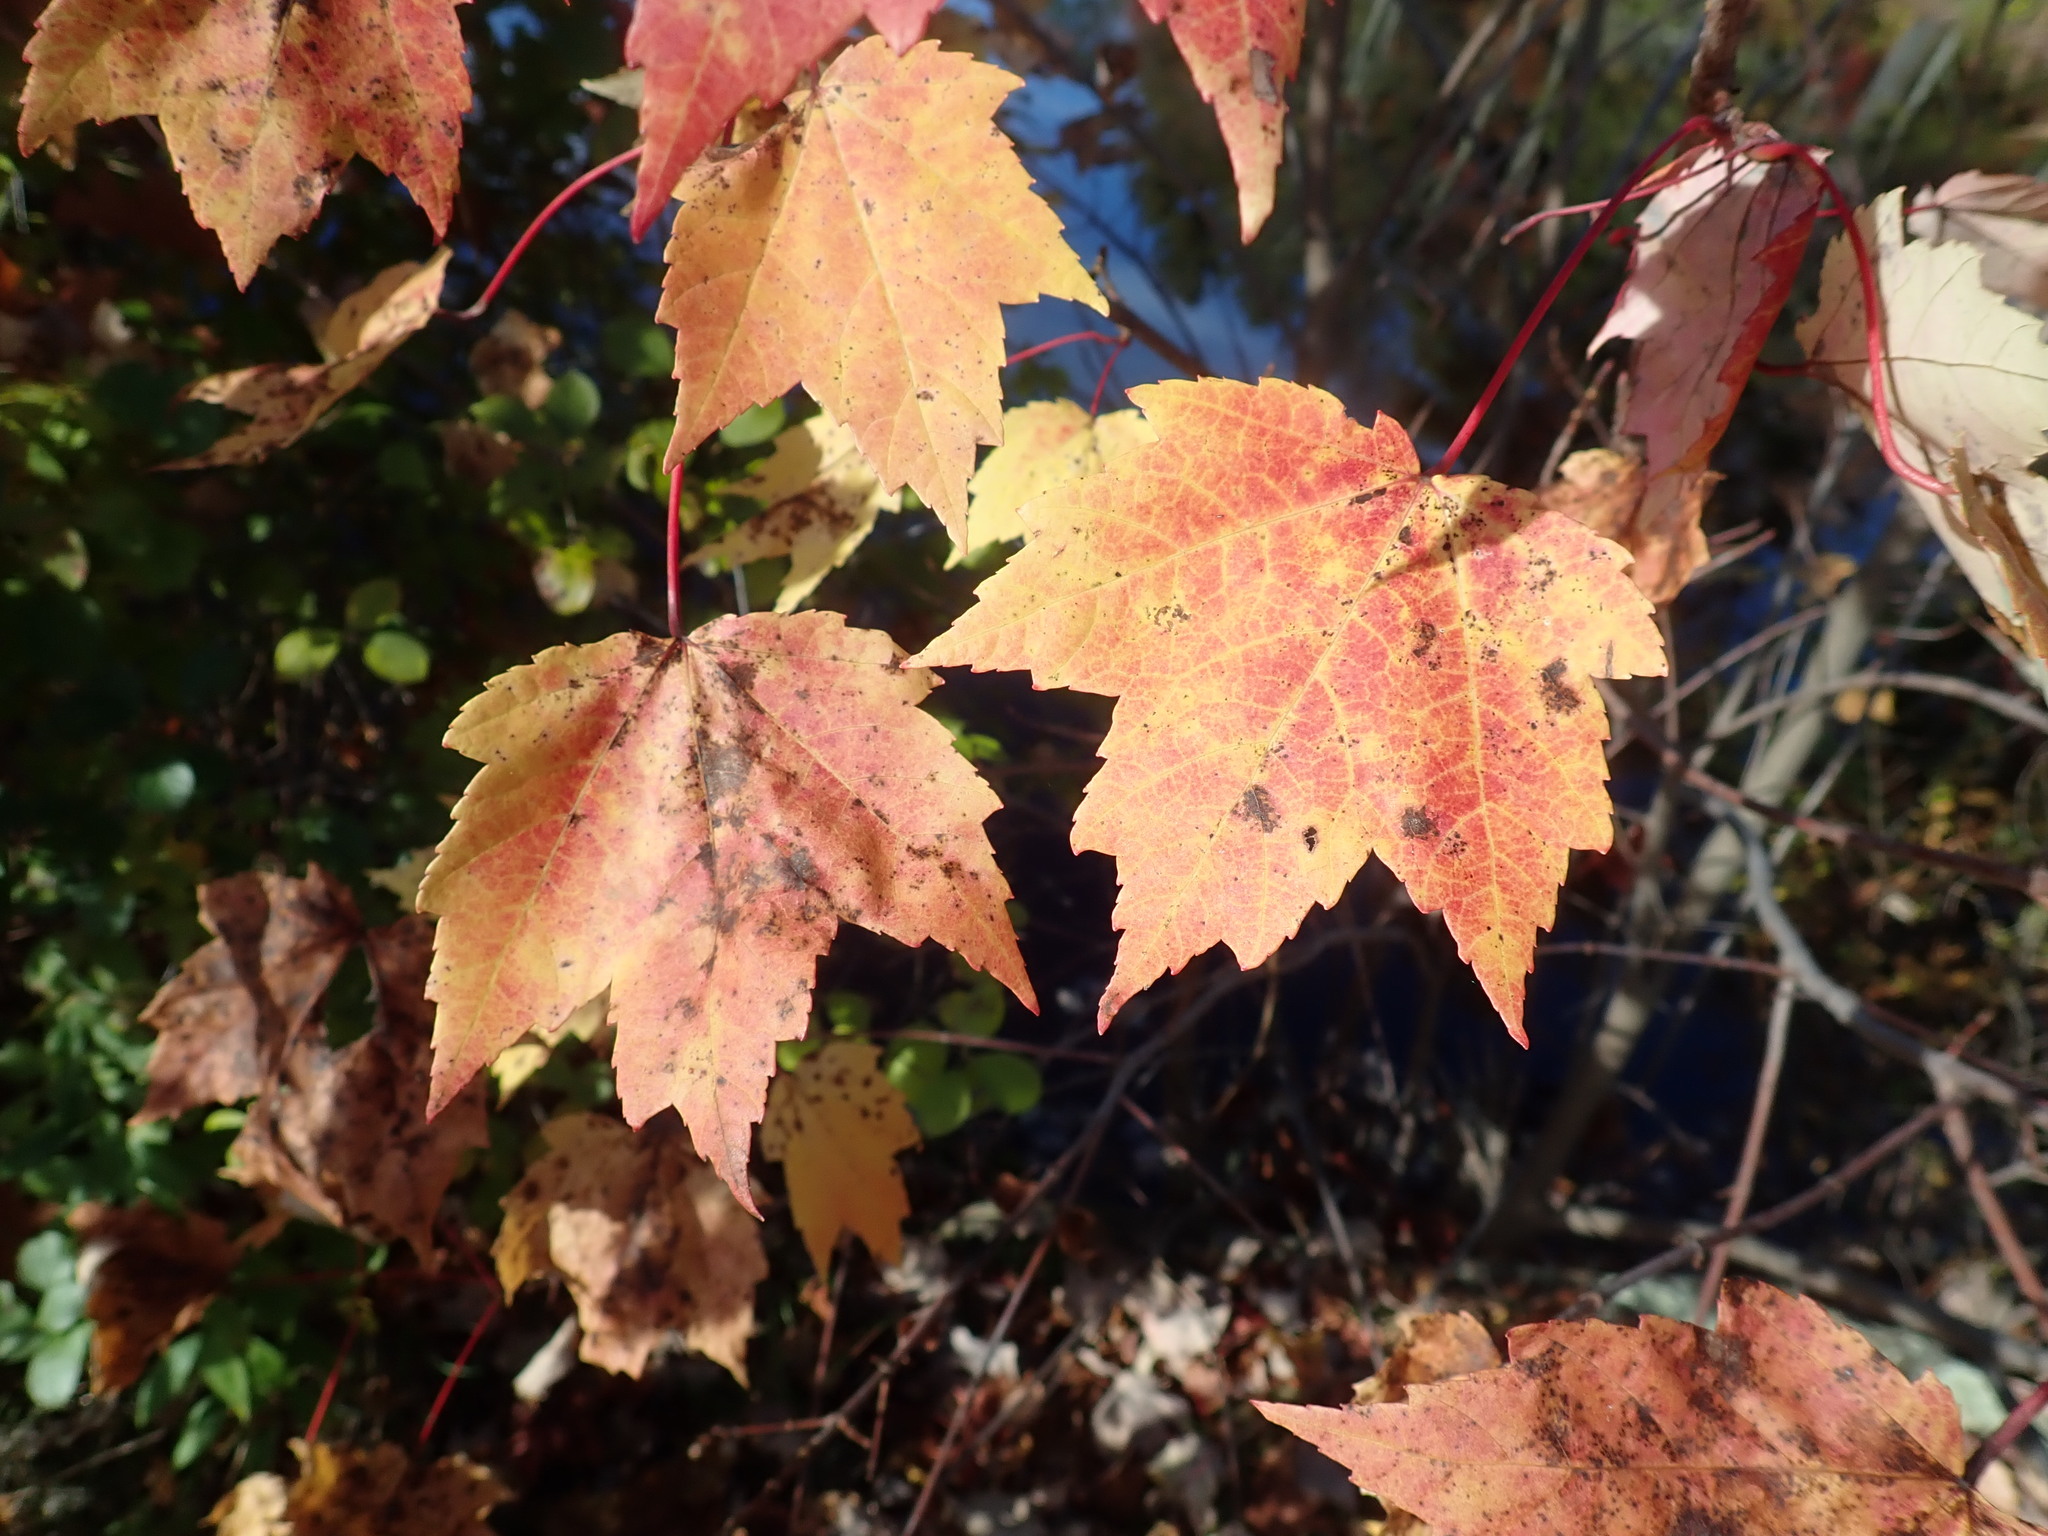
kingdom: Plantae
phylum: Tracheophyta
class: Magnoliopsida
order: Sapindales
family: Sapindaceae
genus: Acer
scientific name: Acer rubrum
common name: Red maple
